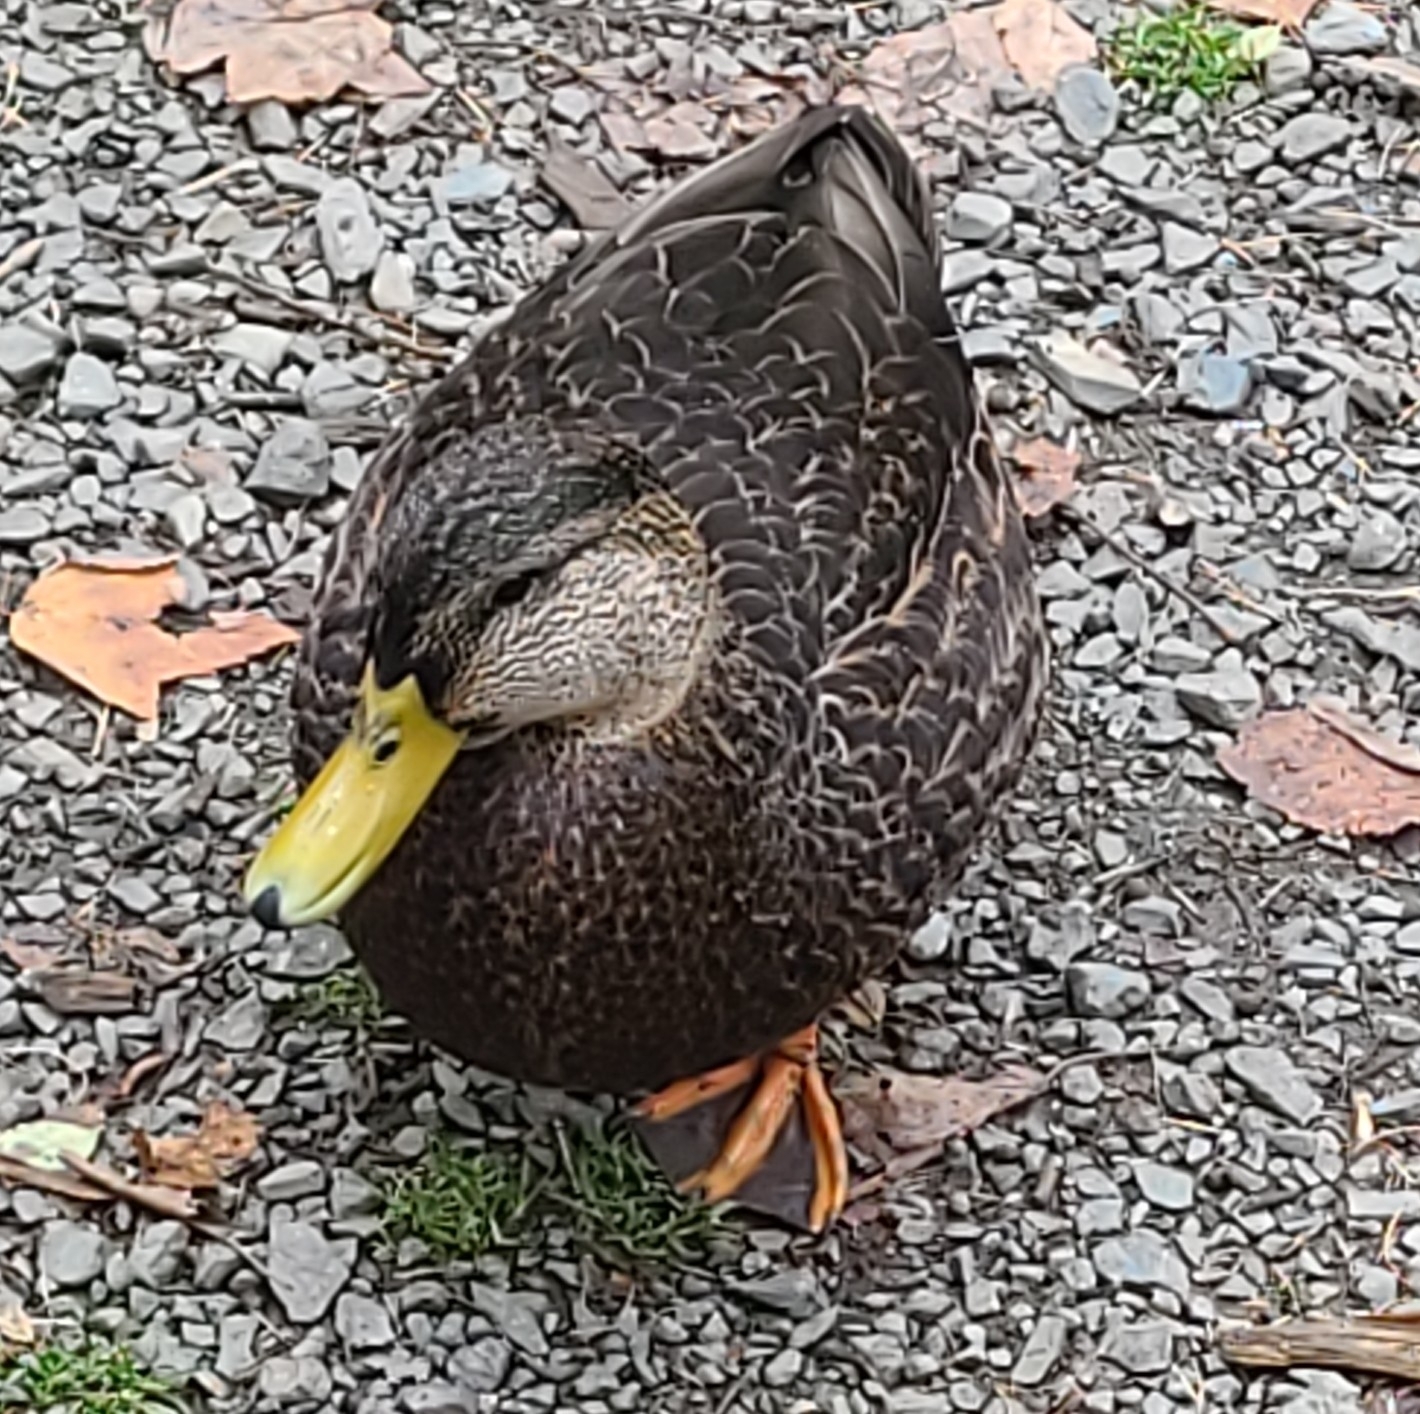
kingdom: Animalia
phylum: Chordata
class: Aves
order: Anseriformes
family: Anatidae
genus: Anas
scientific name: Anas rubripes
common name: American black duck
